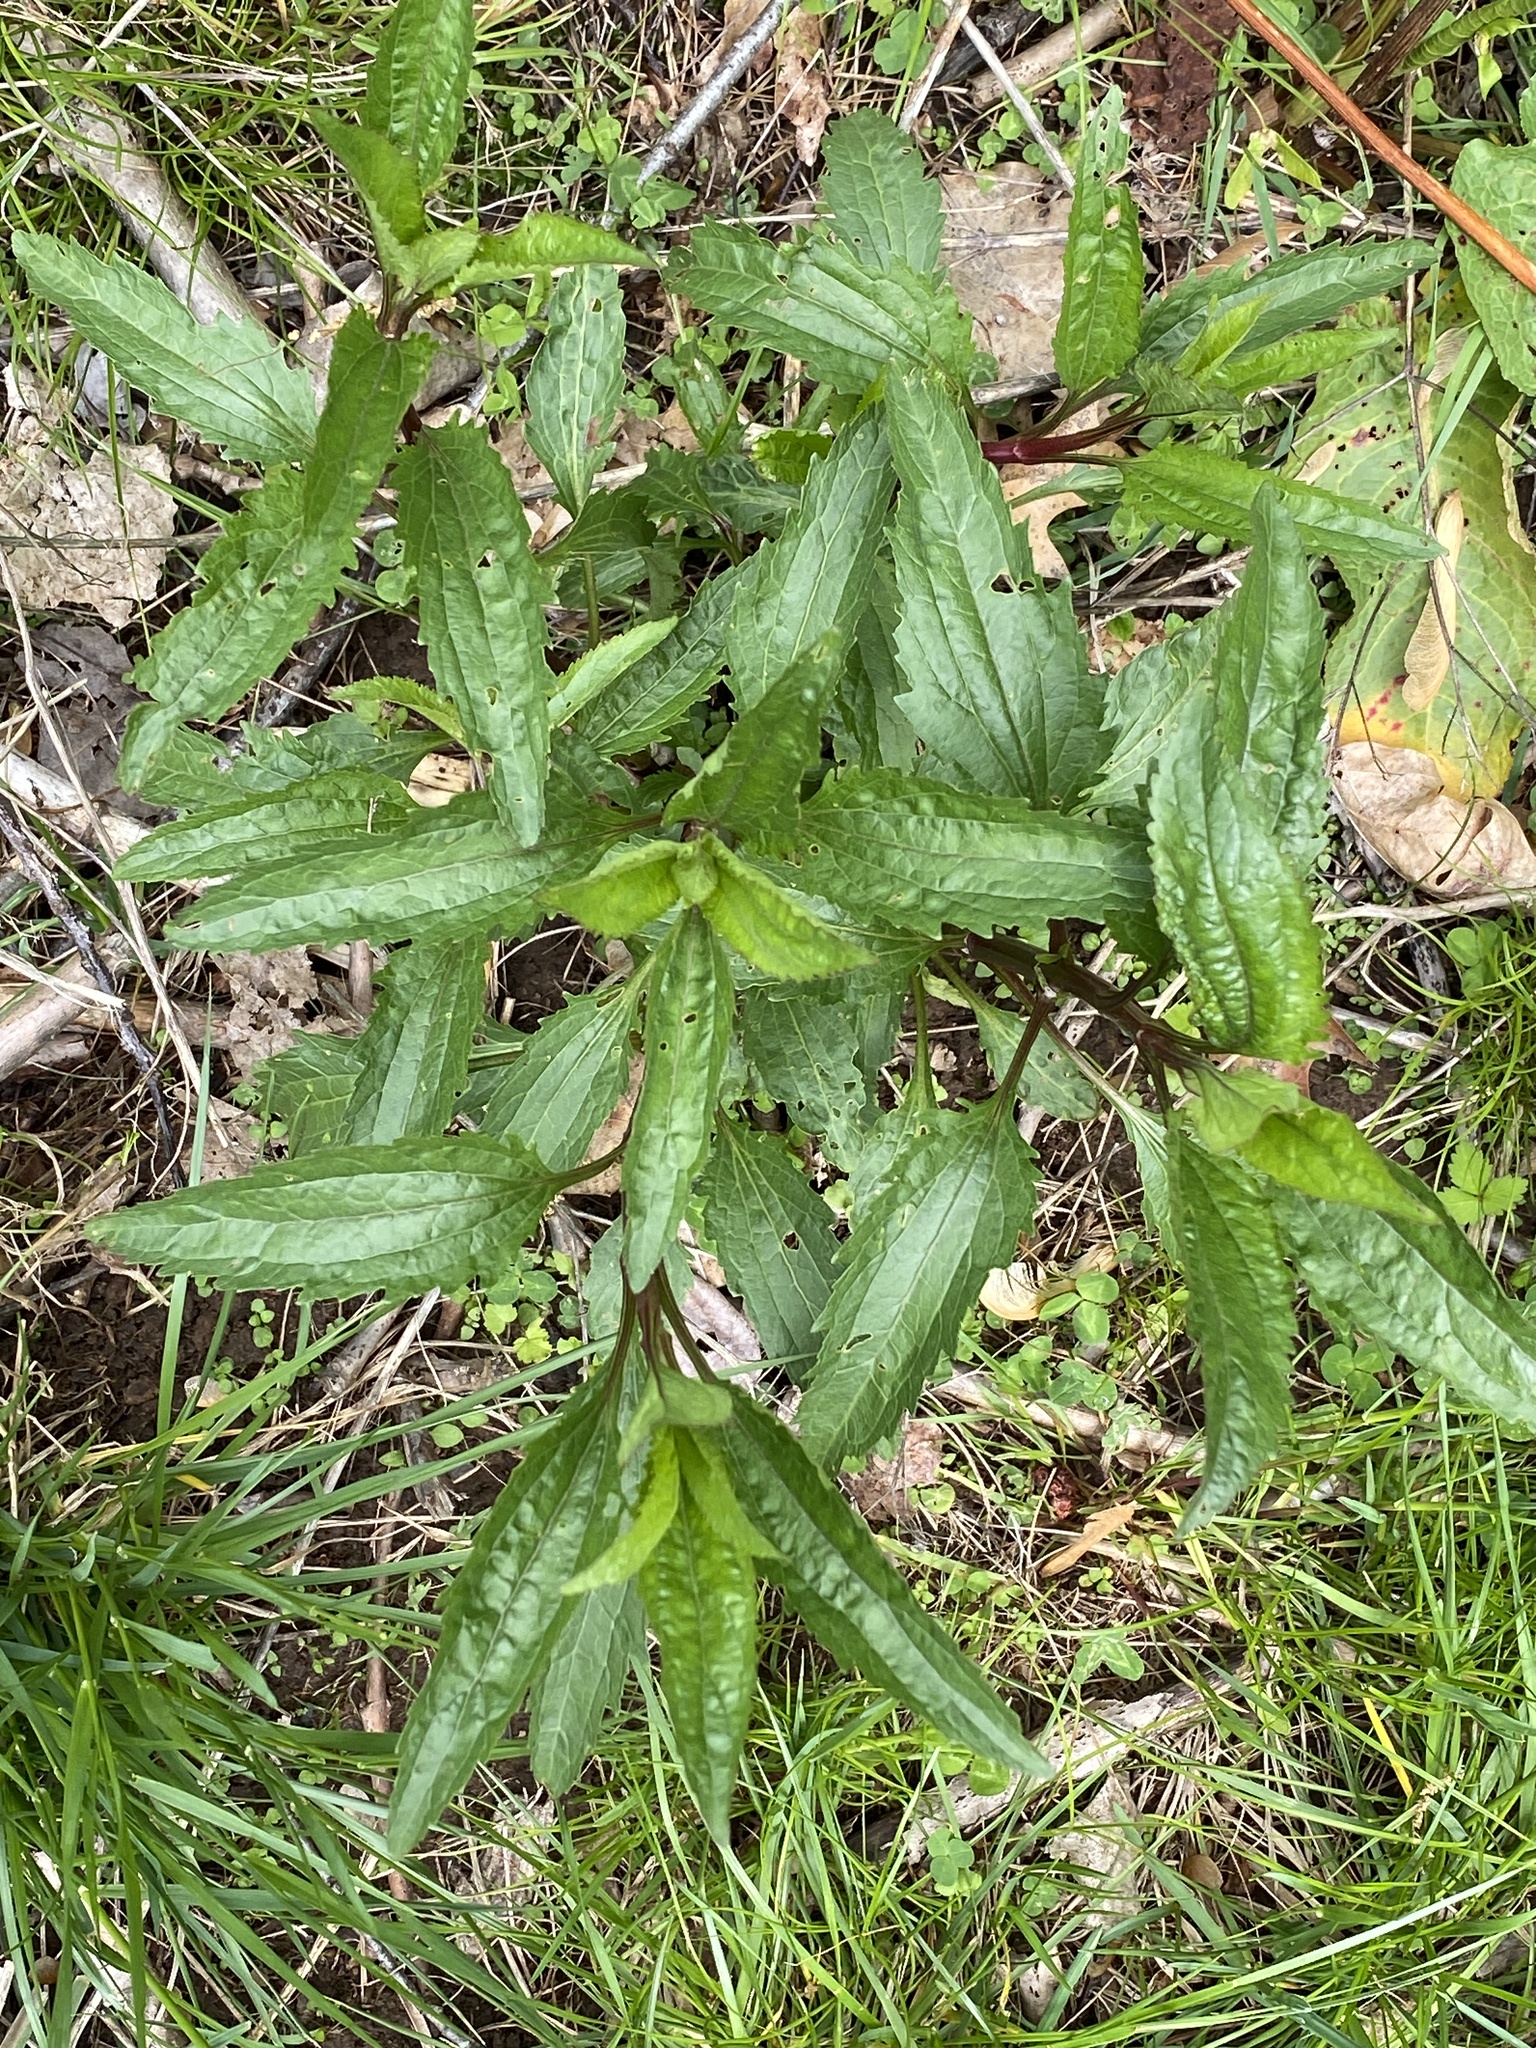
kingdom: Plantae
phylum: Tracheophyta
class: Magnoliopsida
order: Asterales
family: Asteraceae
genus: Eupatorium
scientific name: Eupatorium serotinum
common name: Late boneset
